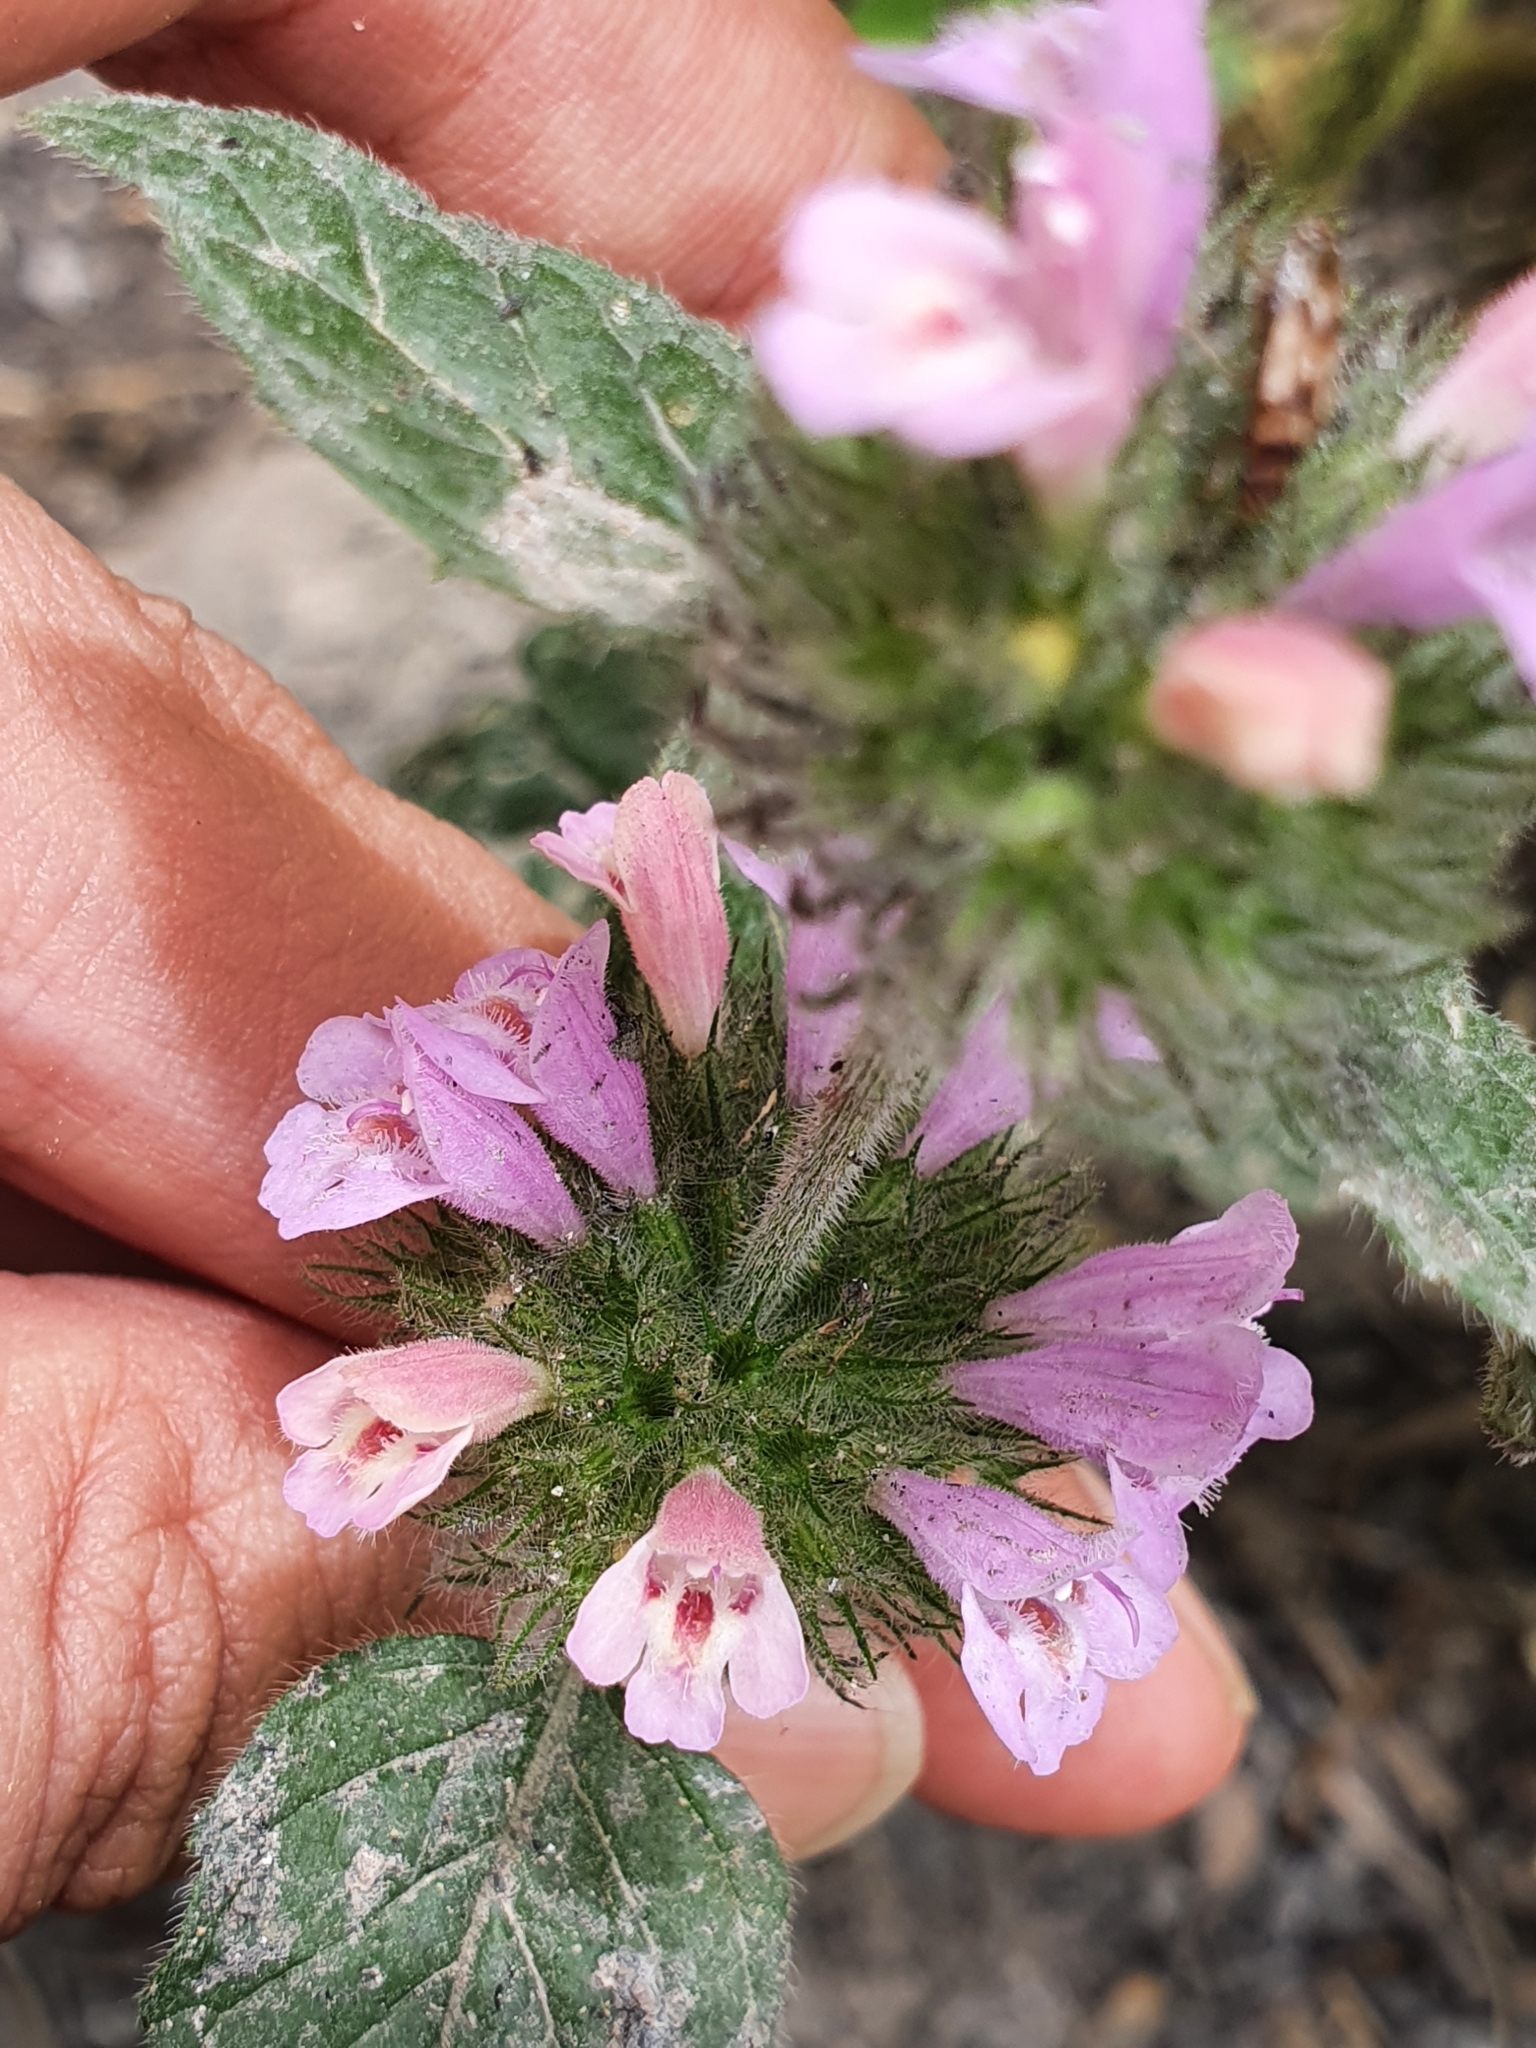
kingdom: Plantae
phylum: Tracheophyta
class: Magnoliopsida
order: Lamiales
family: Lamiaceae
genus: Clinopodium
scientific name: Clinopodium vulgare
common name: Wild basil
